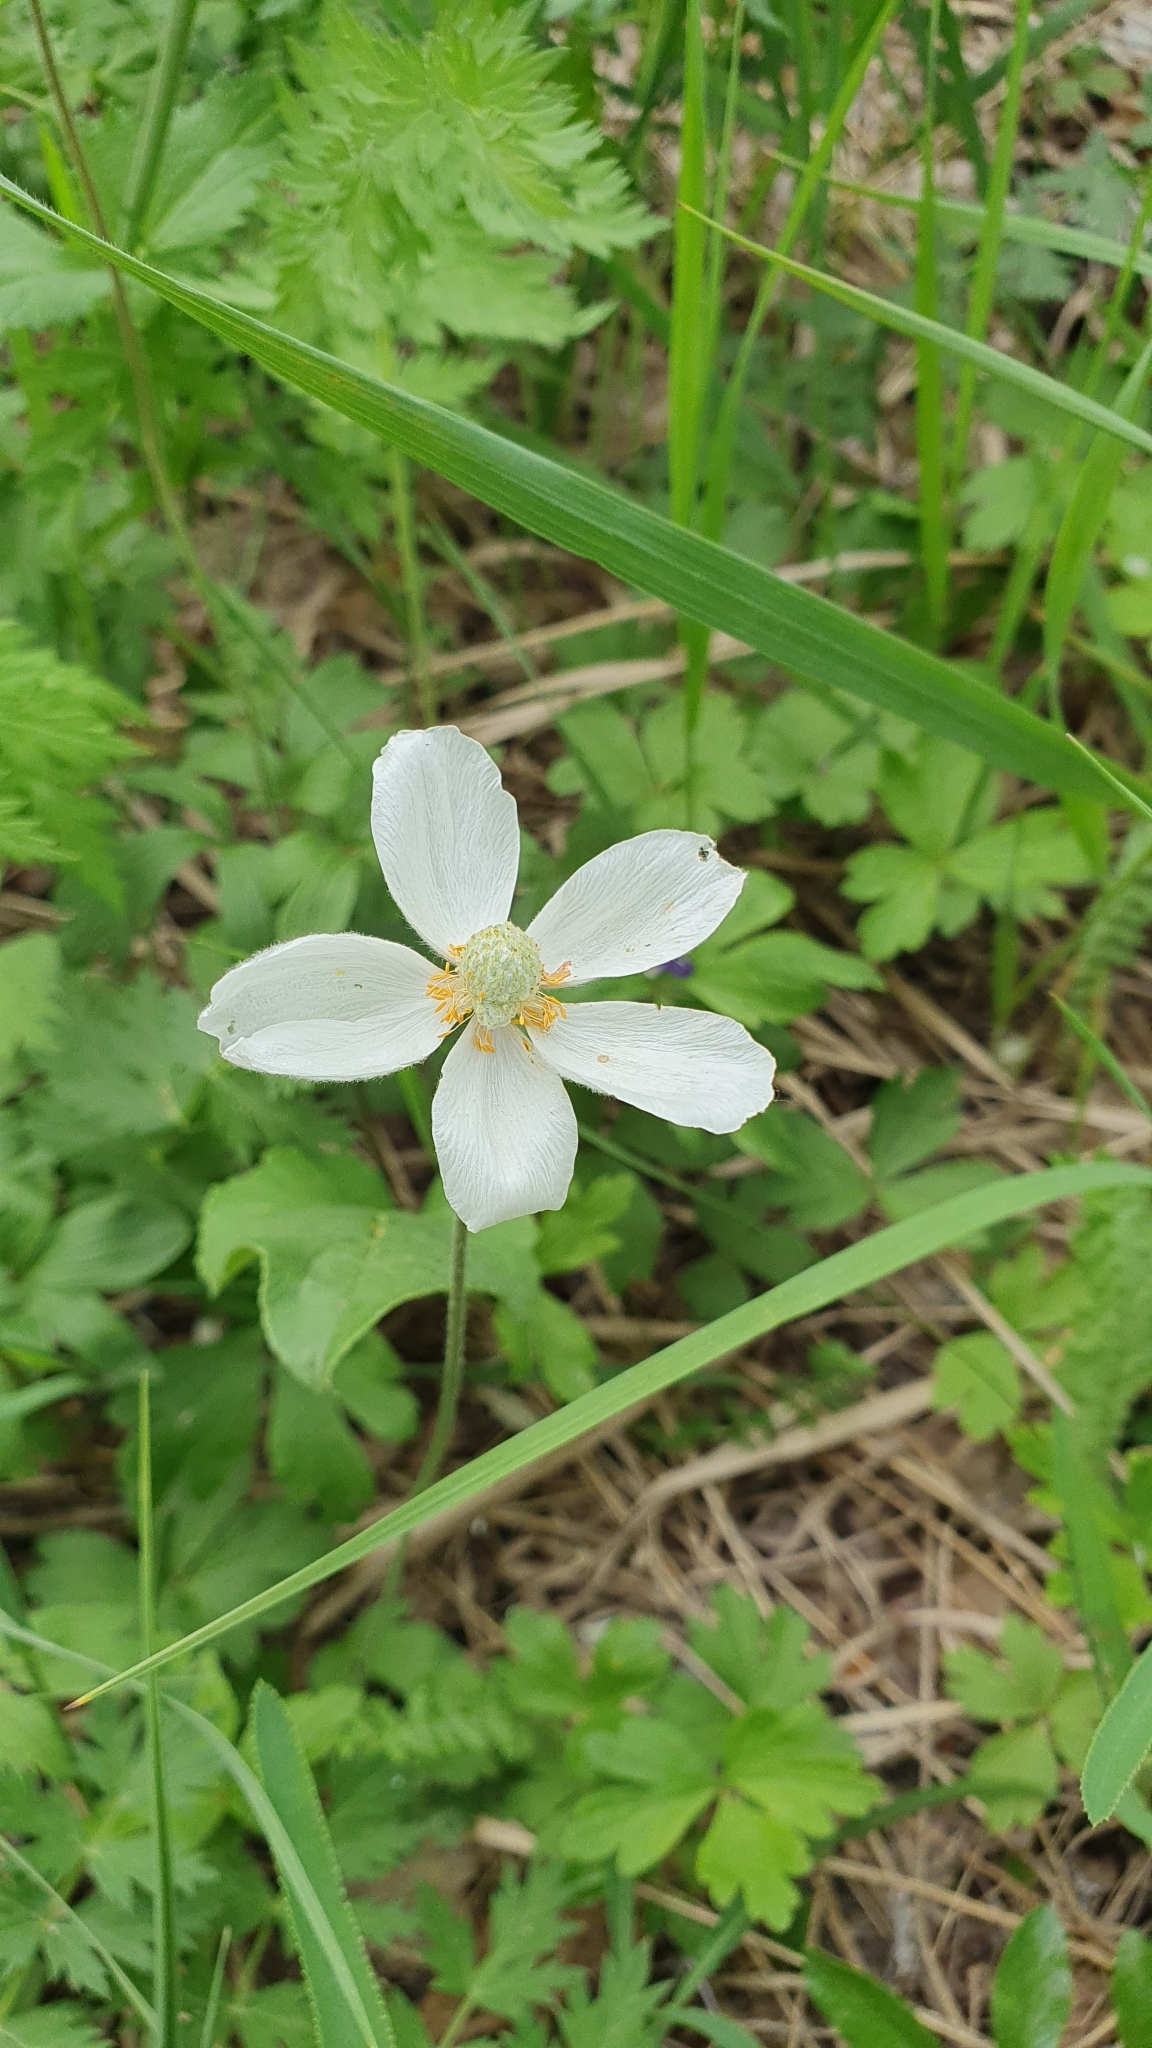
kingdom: Plantae
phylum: Tracheophyta
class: Magnoliopsida
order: Ranunculales
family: Ranunculaceae
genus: Anemone
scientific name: Anemone sylvestris
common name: Snowdrop anemone
